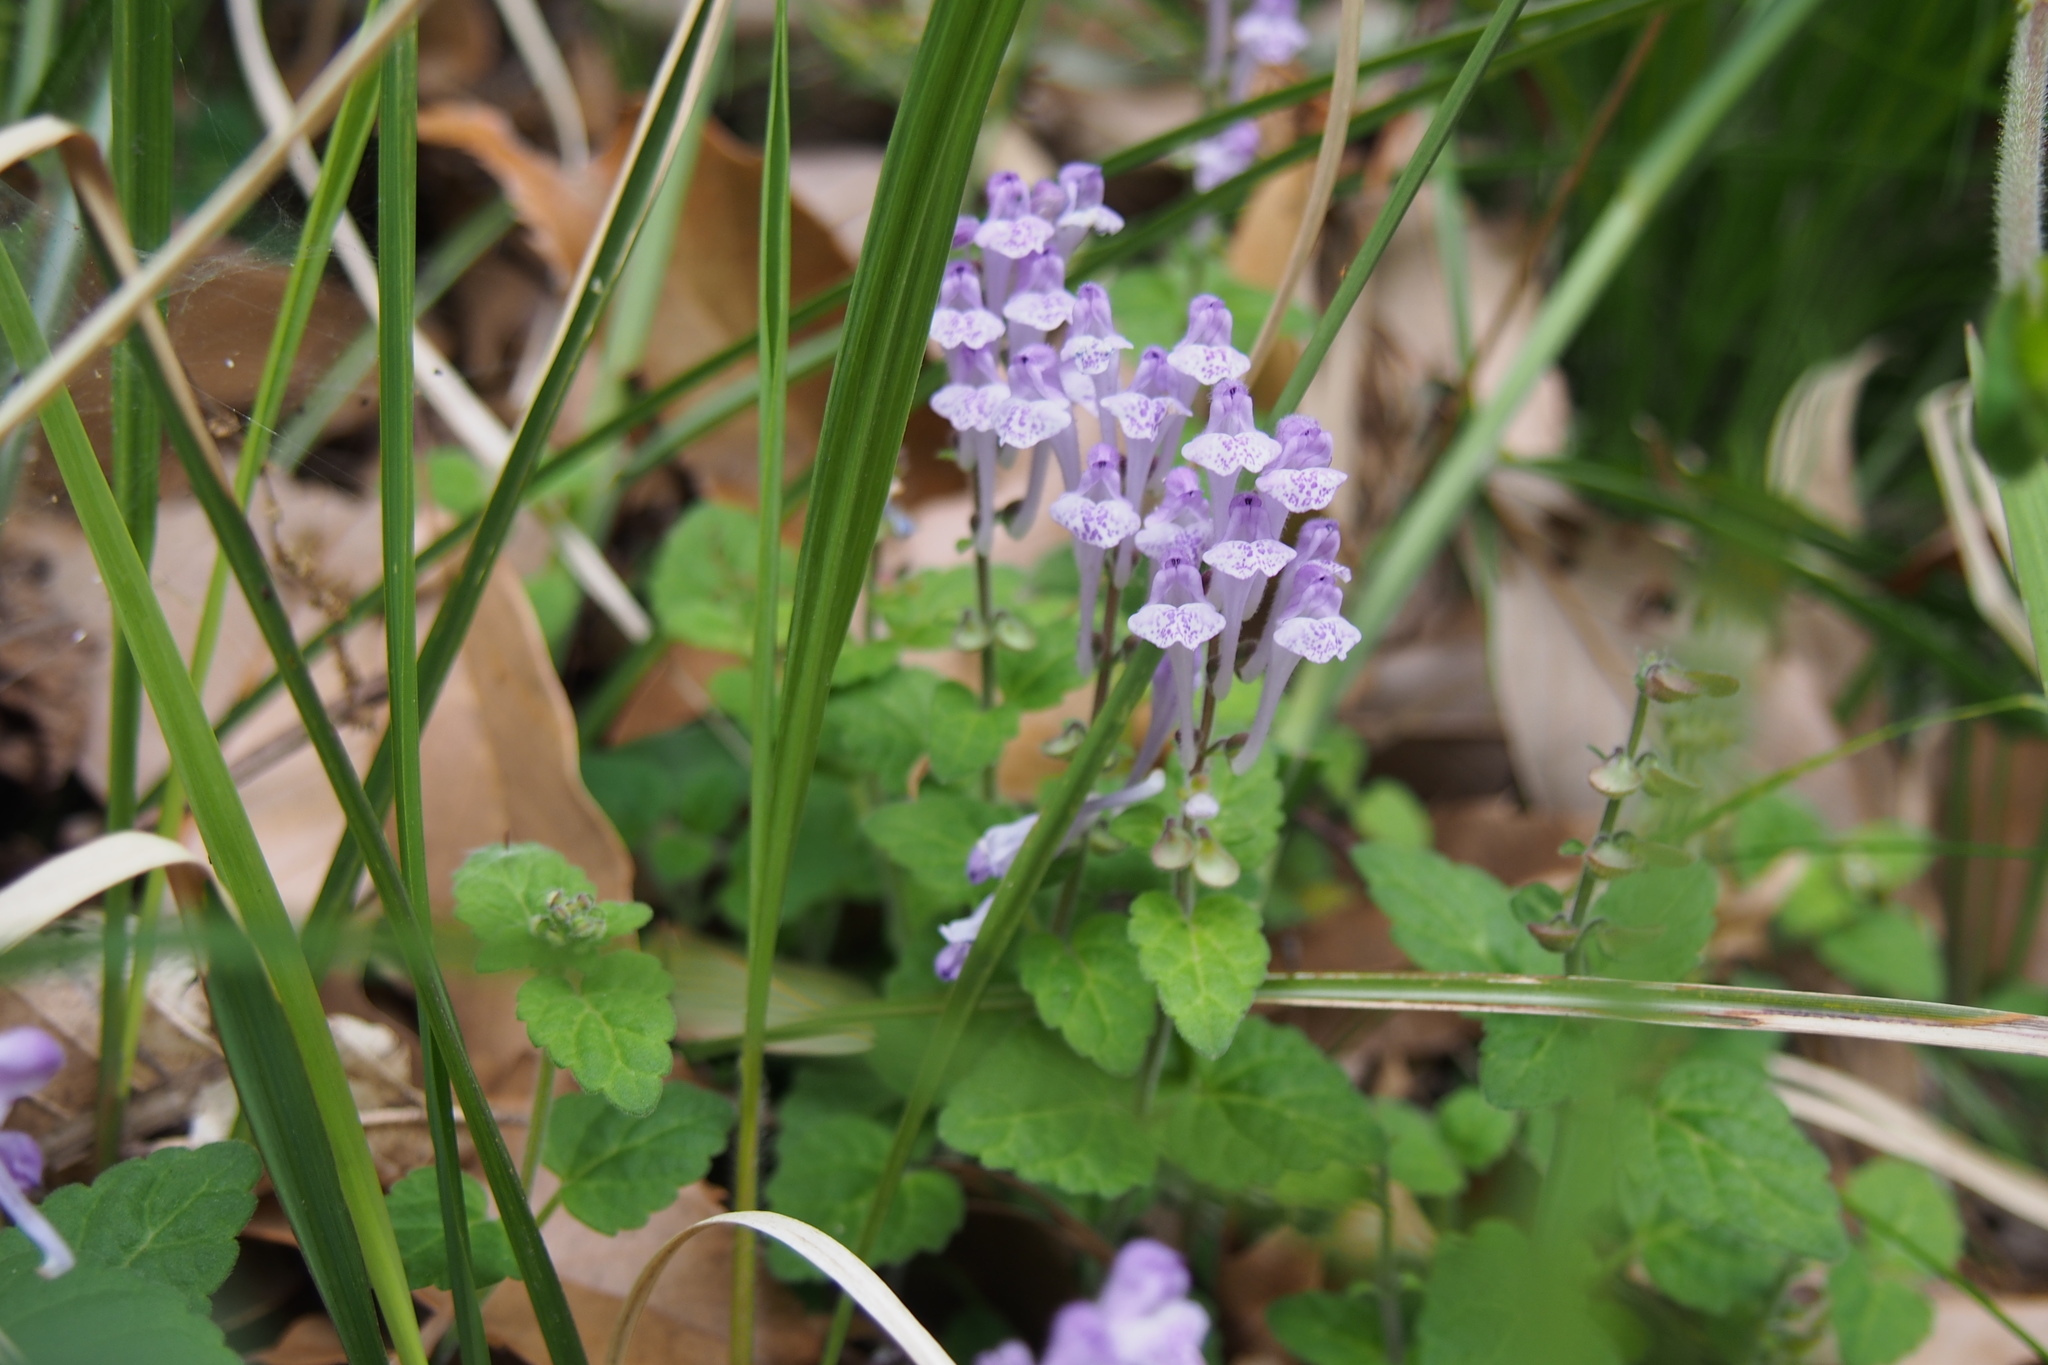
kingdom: Plantae
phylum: Tracheophyta
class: Magnoliopsida
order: Lamiales
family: Lamiaceae
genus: Scutellaria
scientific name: Scutellaria indica
